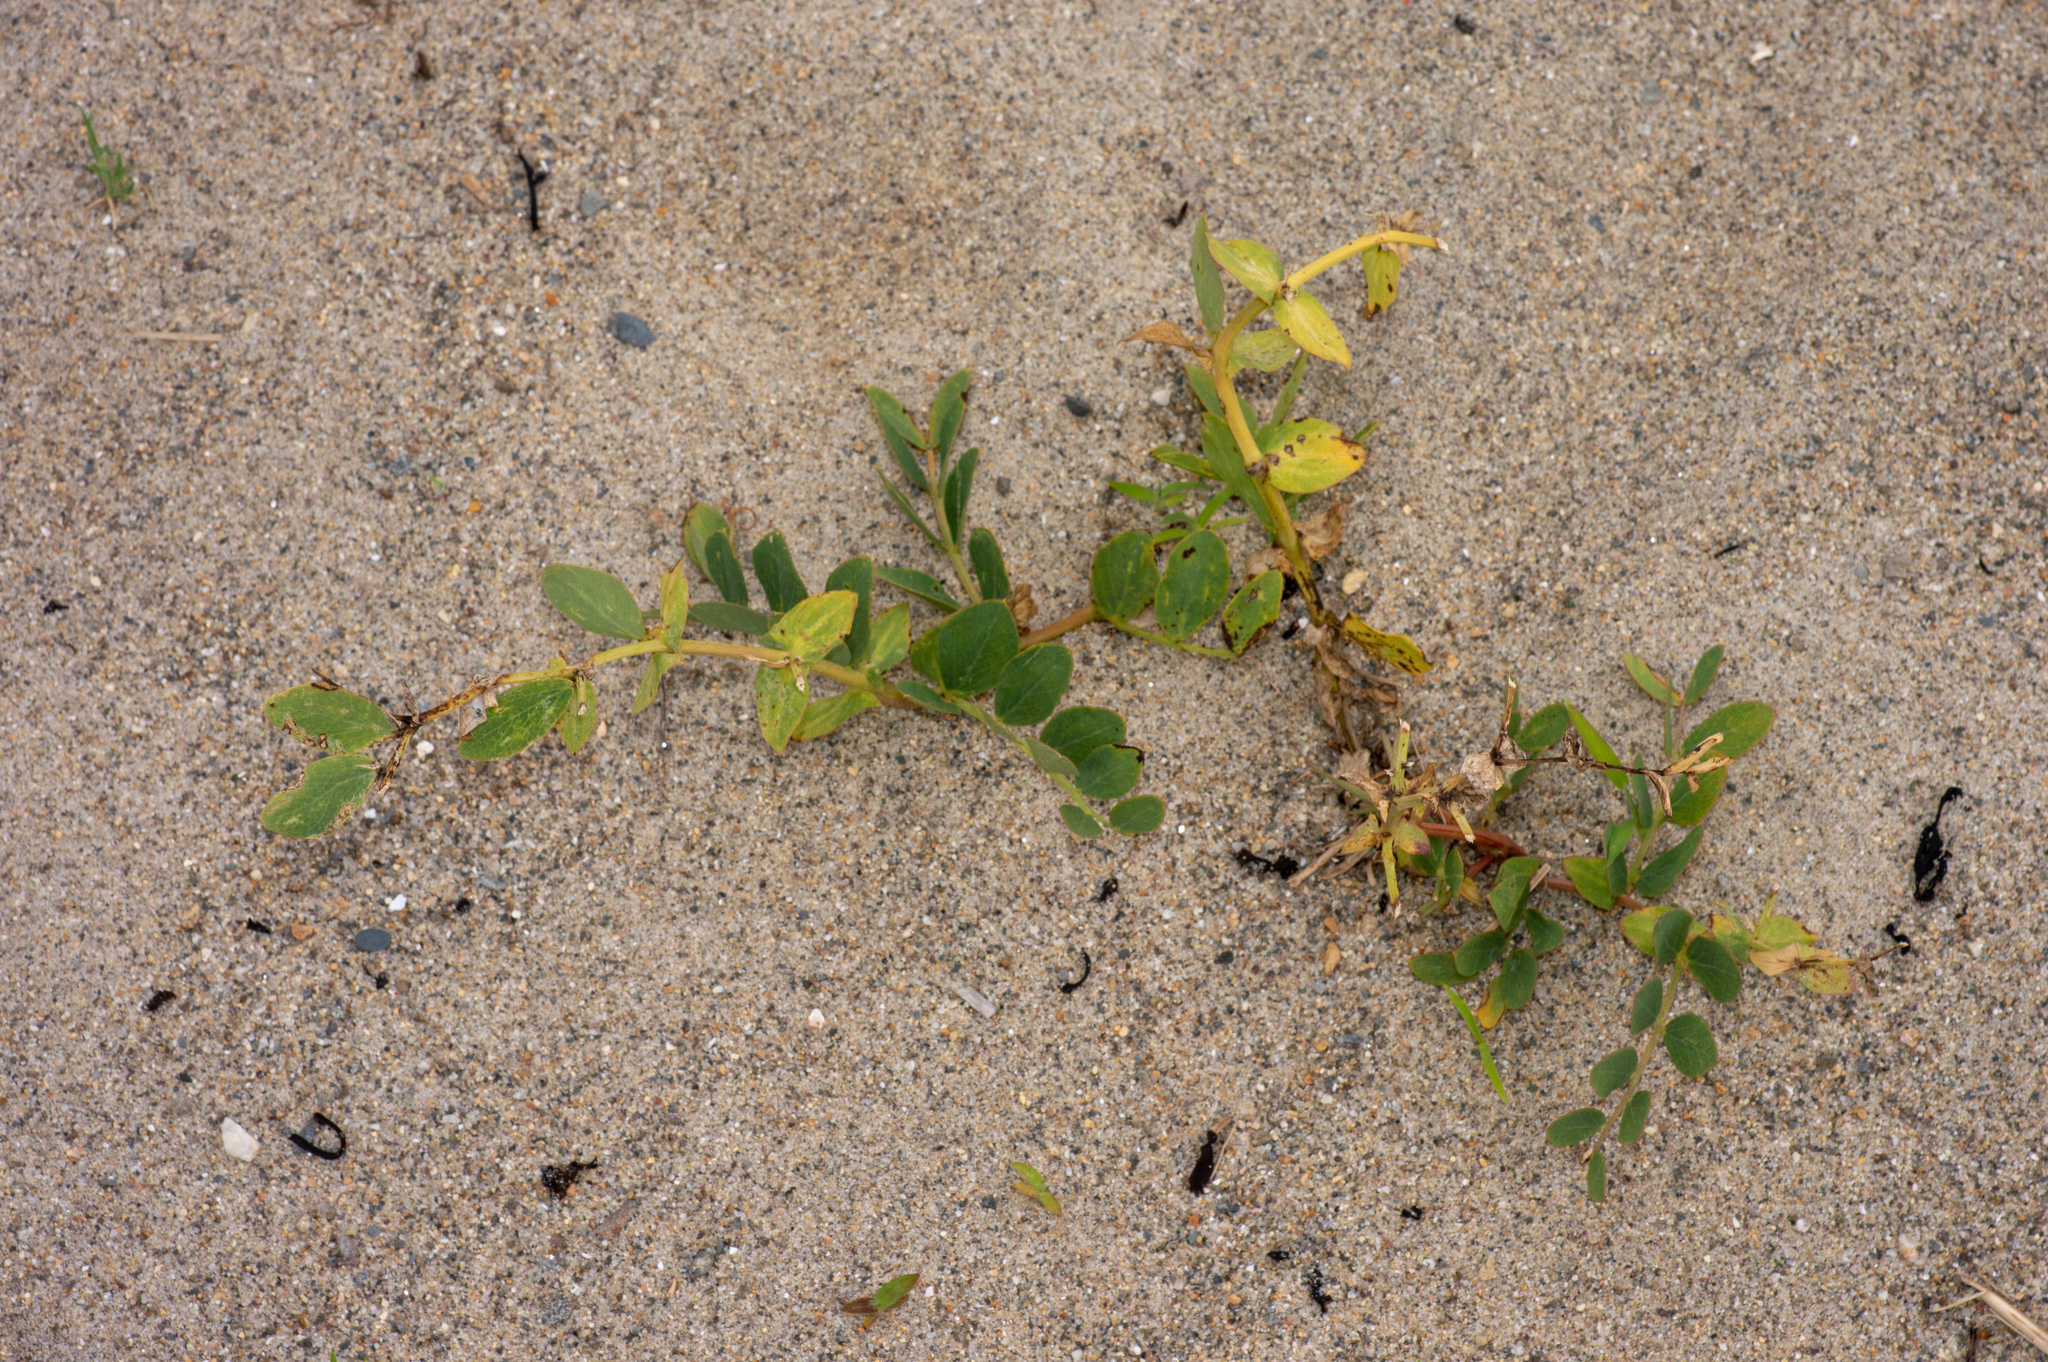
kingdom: Plantae
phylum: Tracheophyta
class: Magnoliopsida
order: Fabales
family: Fabaceae
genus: Lathyrus
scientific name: Lathyrus japonicus
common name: Sea pea
